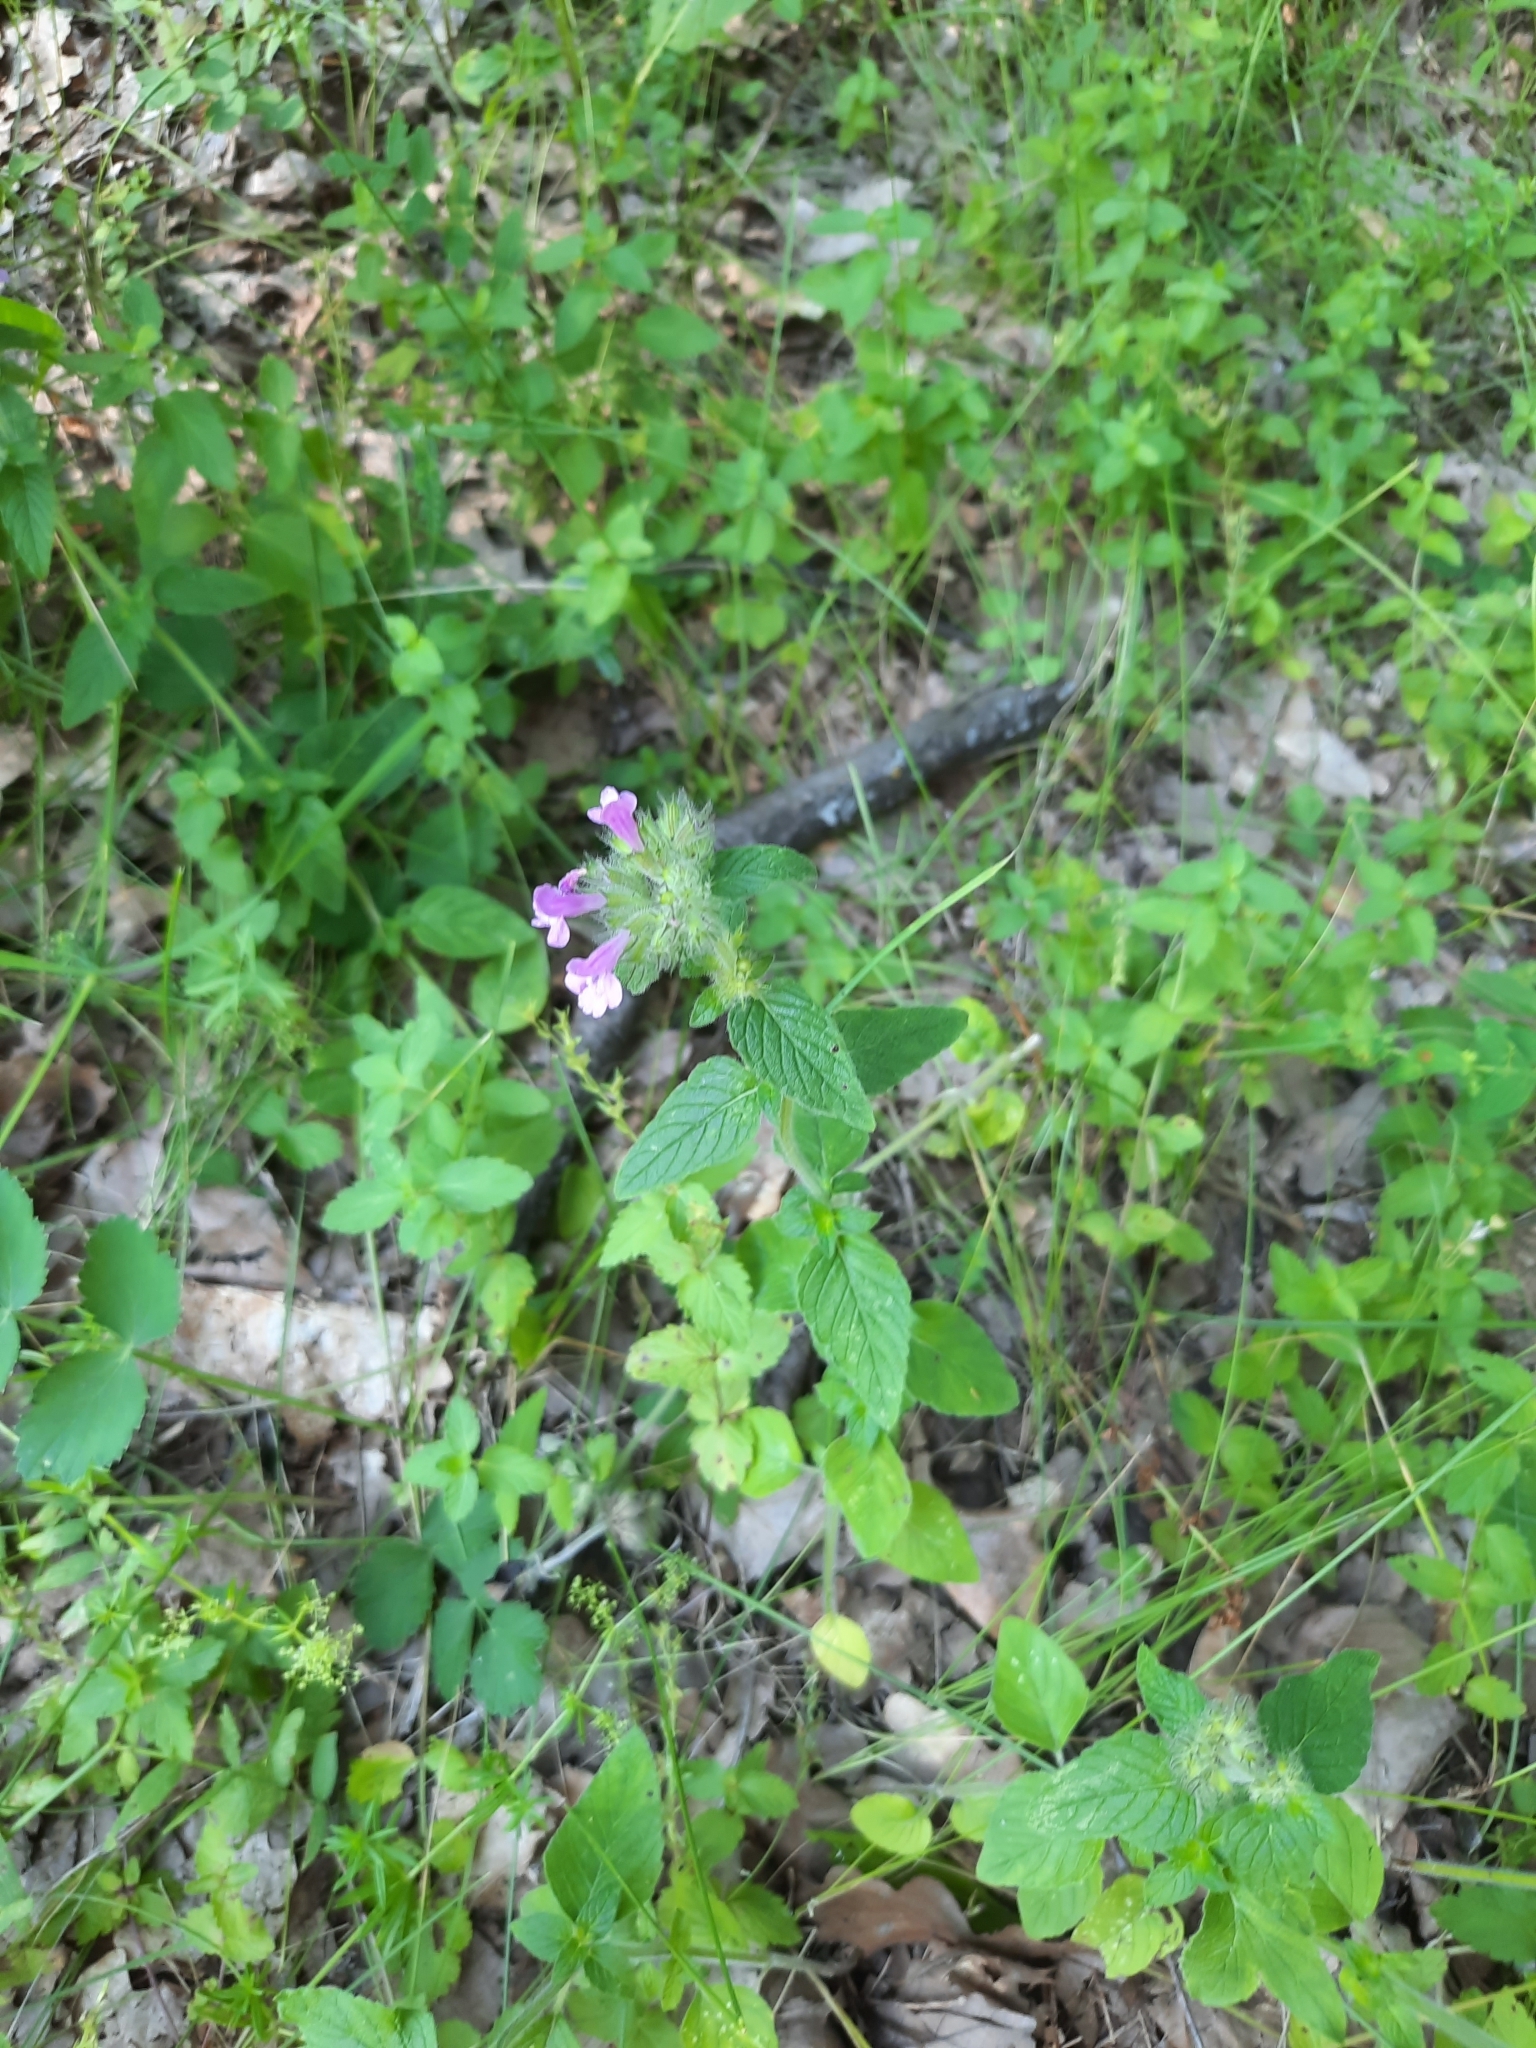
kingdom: Plantae
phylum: Tracheophyta
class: Magnoliopsida
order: Lamiales
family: Lamiaceae
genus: Clinopodium
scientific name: Clinopodium vulgare
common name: Wild basil
